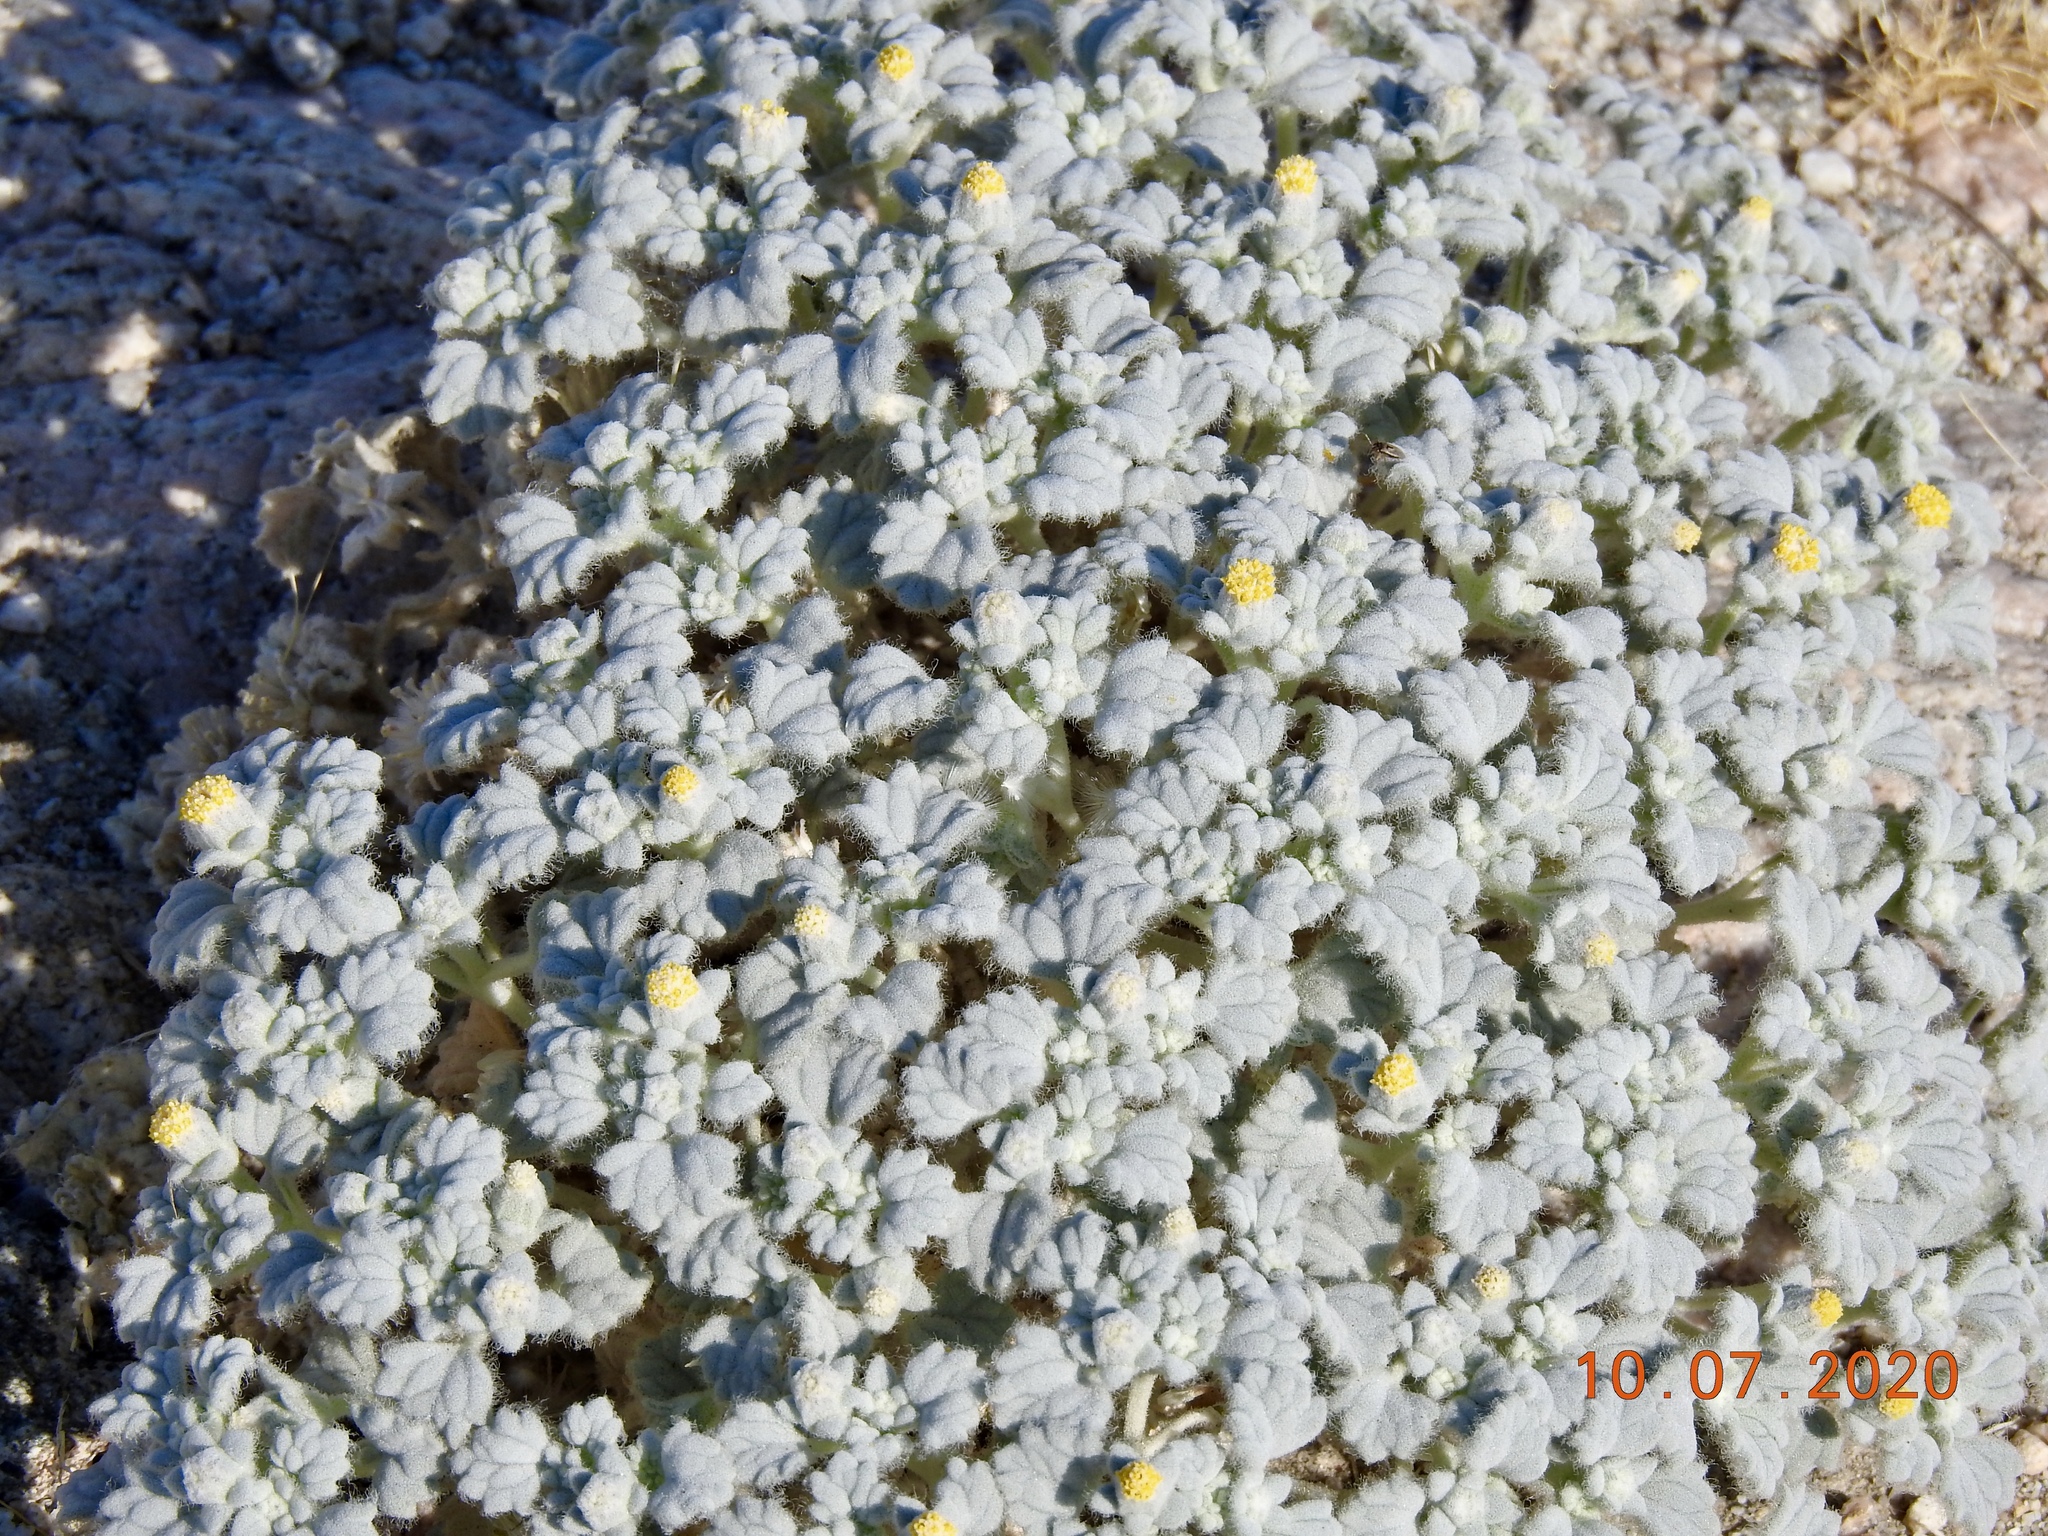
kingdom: Plantae
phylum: Tracheophyta
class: Magnoliopsida
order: Asterales
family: Asteraceae
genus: Psathyrotes
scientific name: Psathyrotes ramosissima
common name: Turtleback
